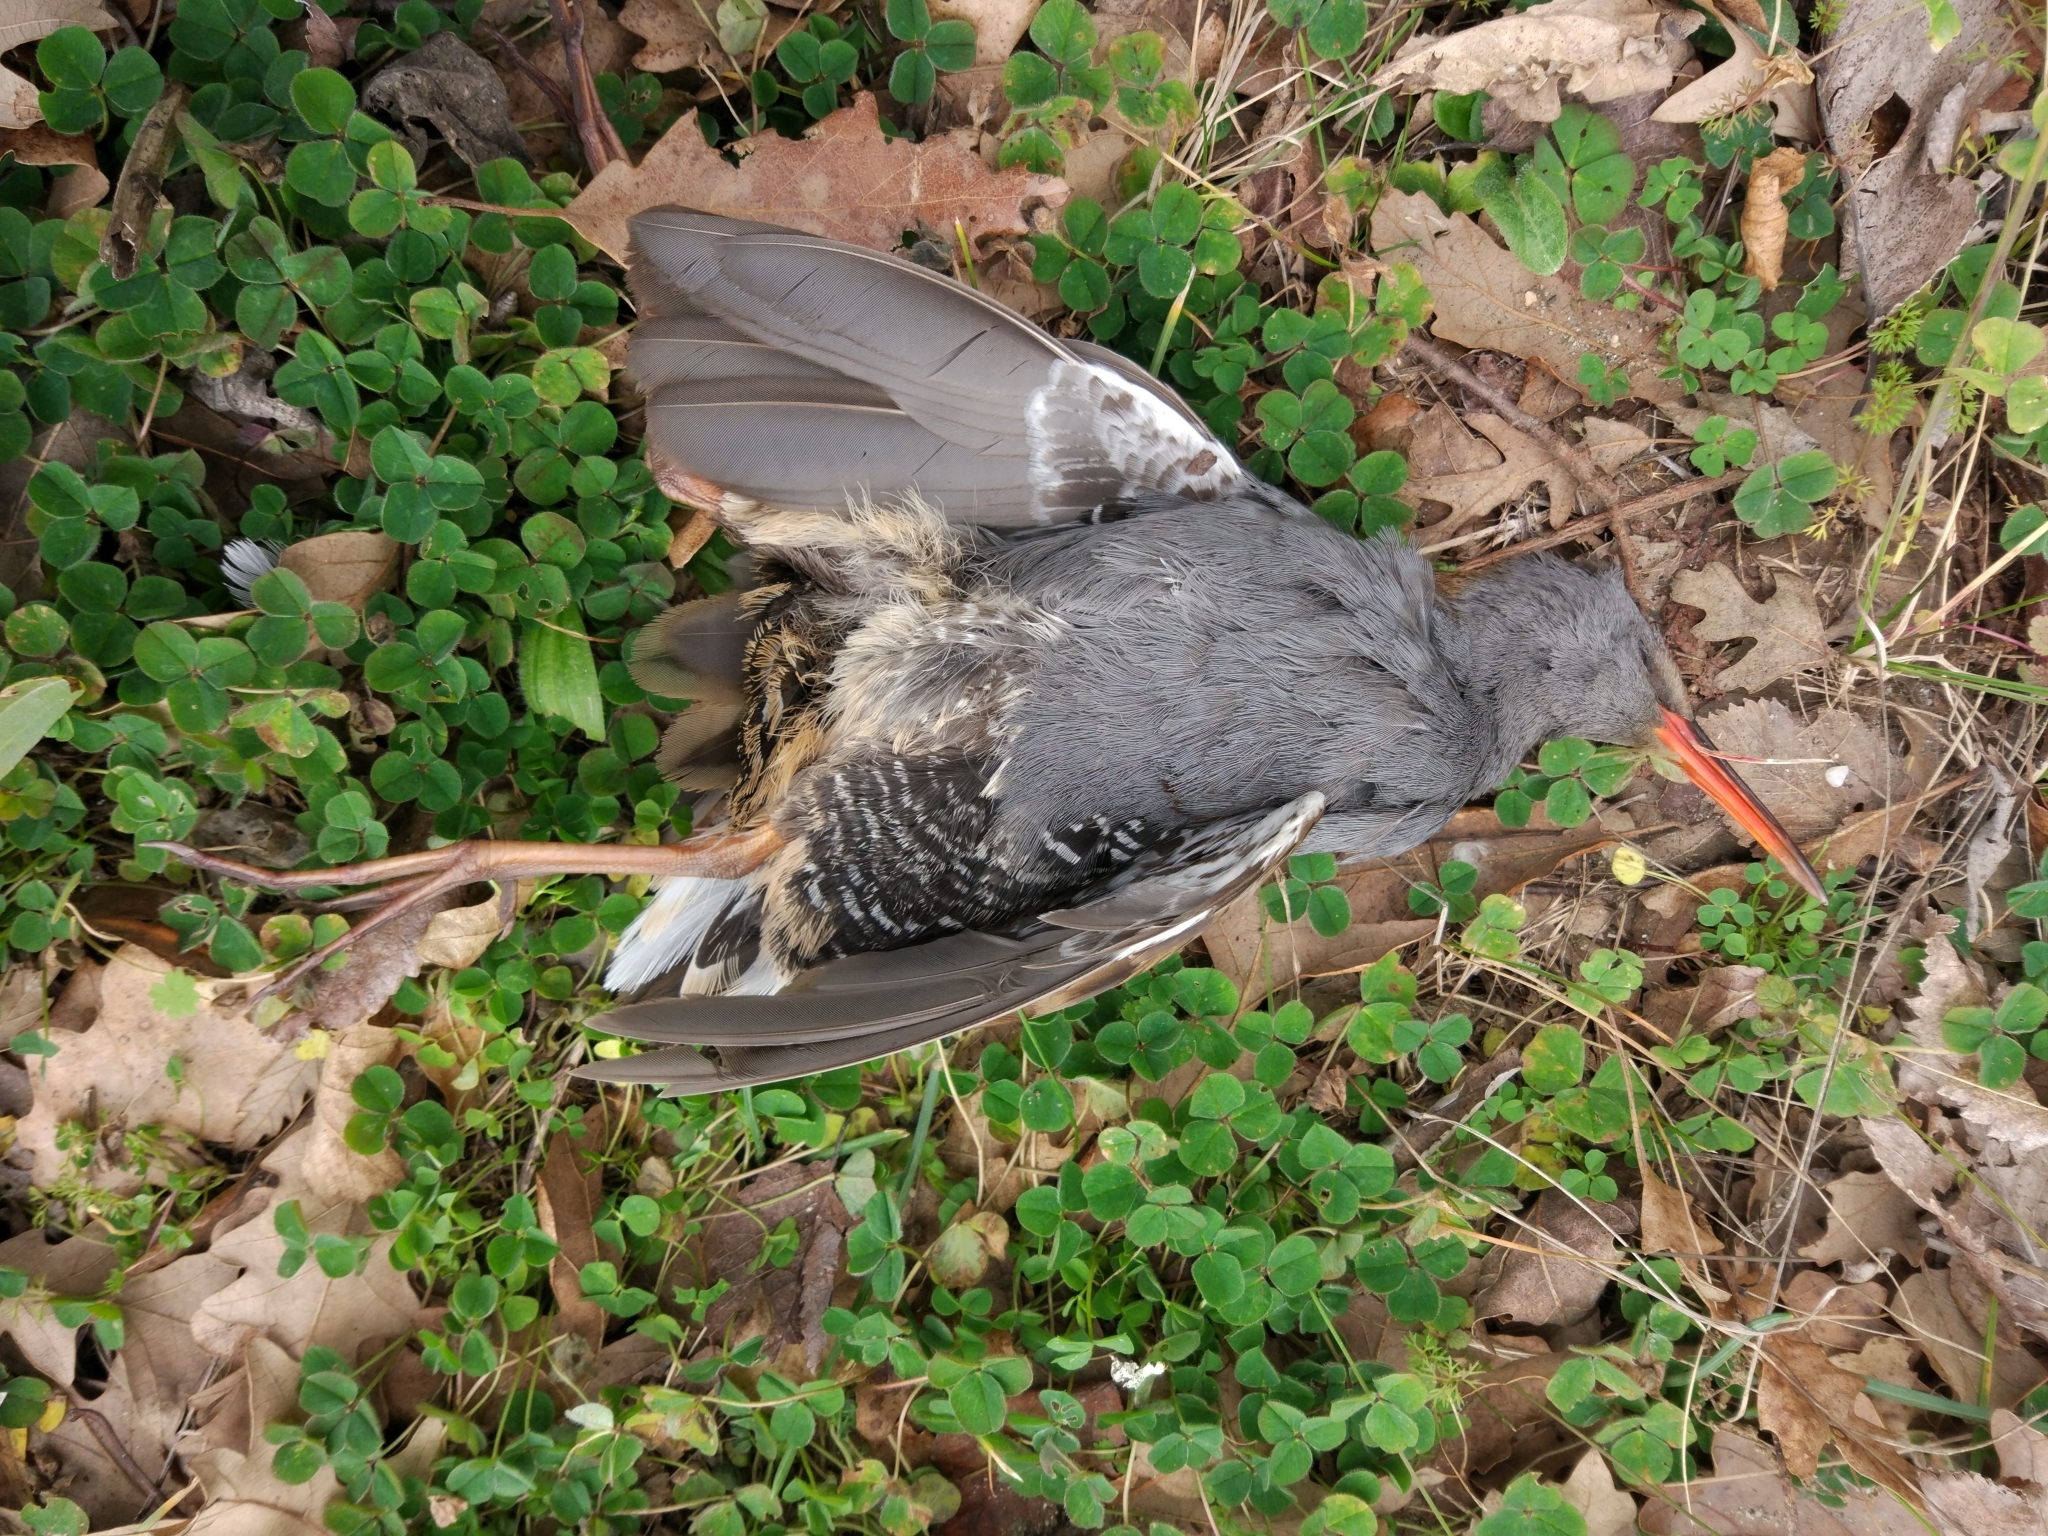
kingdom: Animalia
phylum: Chordata
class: Aves
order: Gruiformes
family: Rallidae
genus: Rallus
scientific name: Rallus aquaticus
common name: Water rail
